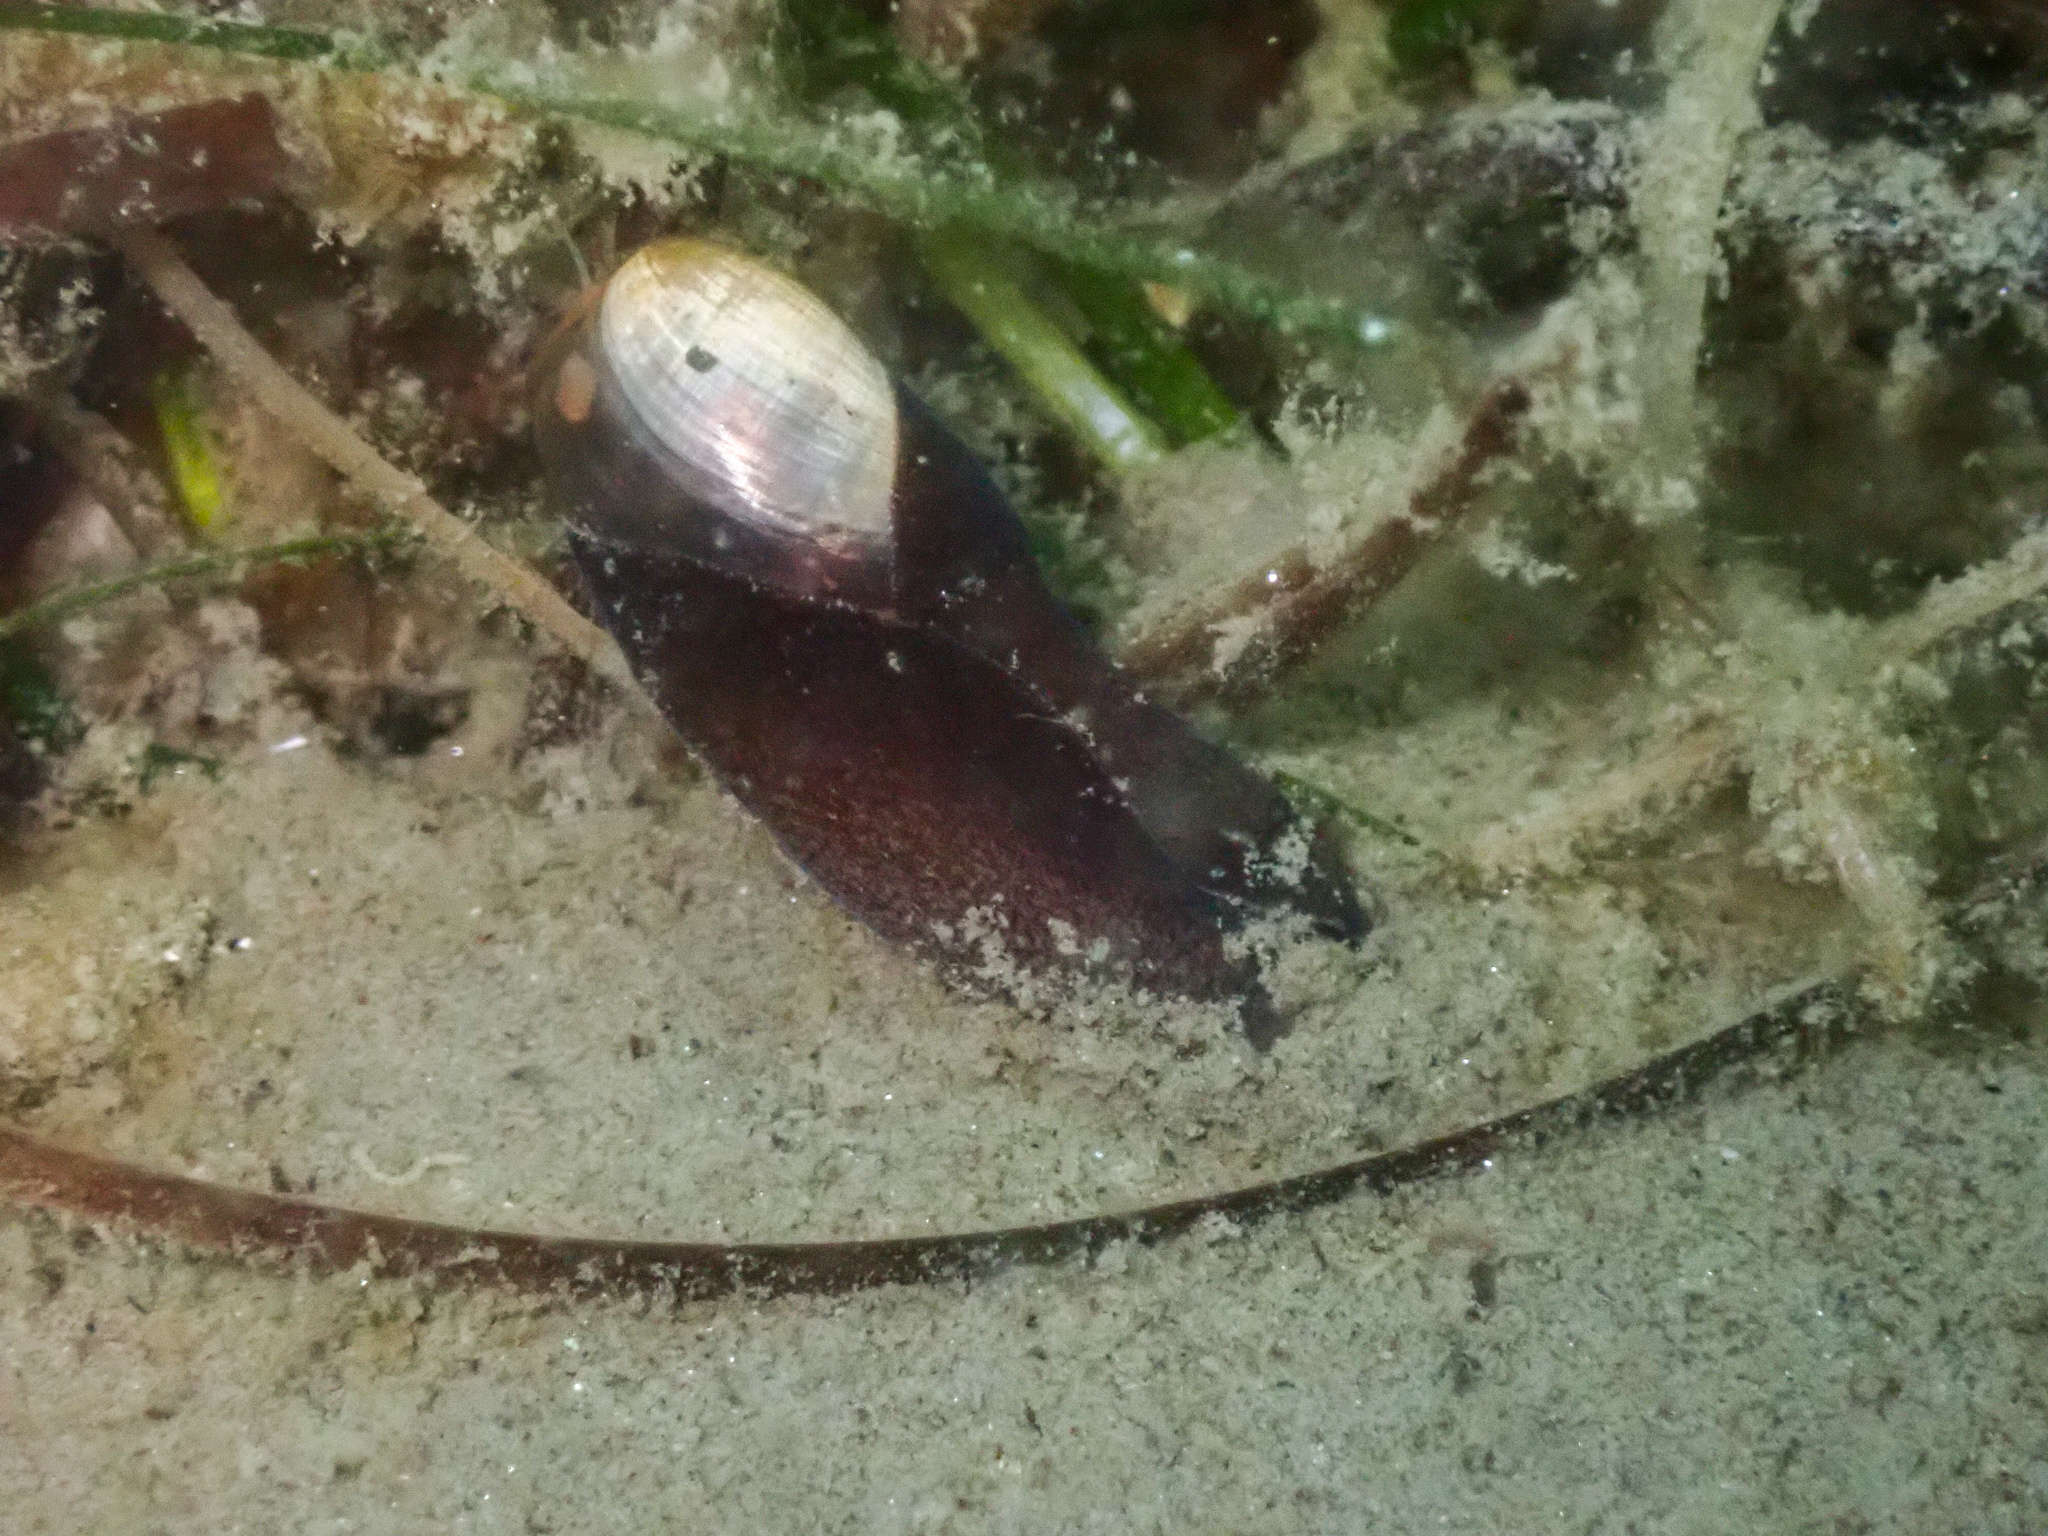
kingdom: Animalia
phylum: Mollusca
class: Gastropoda
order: Aplysiida
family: Akeridae
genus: Akera
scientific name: Akera bullata
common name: Common bubble snail
